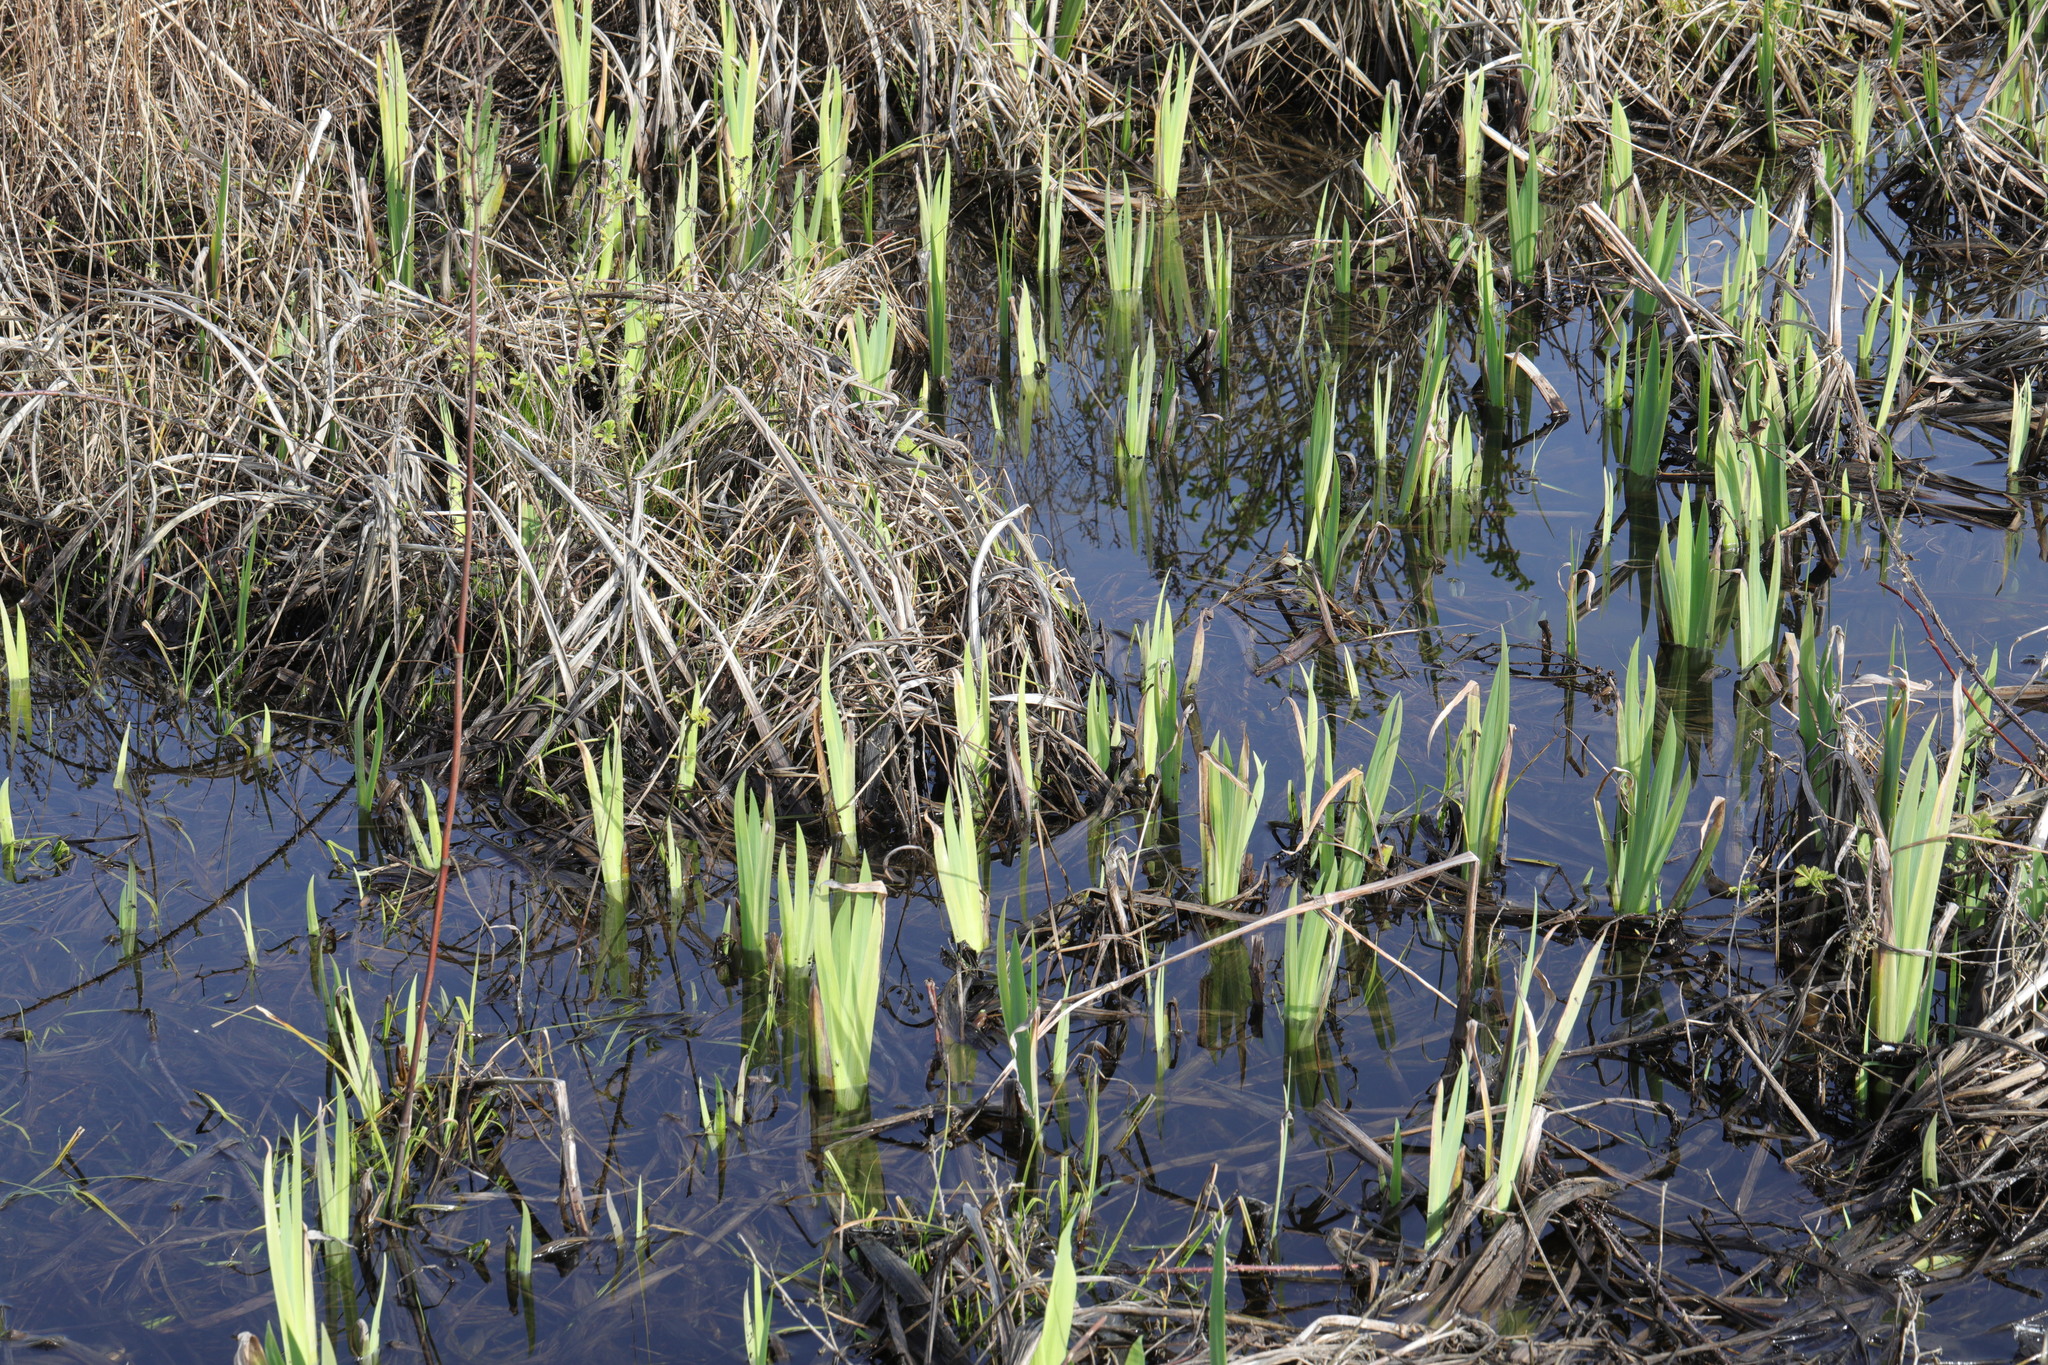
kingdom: Plantae
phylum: Tracheophyta
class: Liliopsida
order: Asparagales
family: Iridaceae
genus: Iris
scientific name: Iris pseudacorus
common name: Yellow flag
